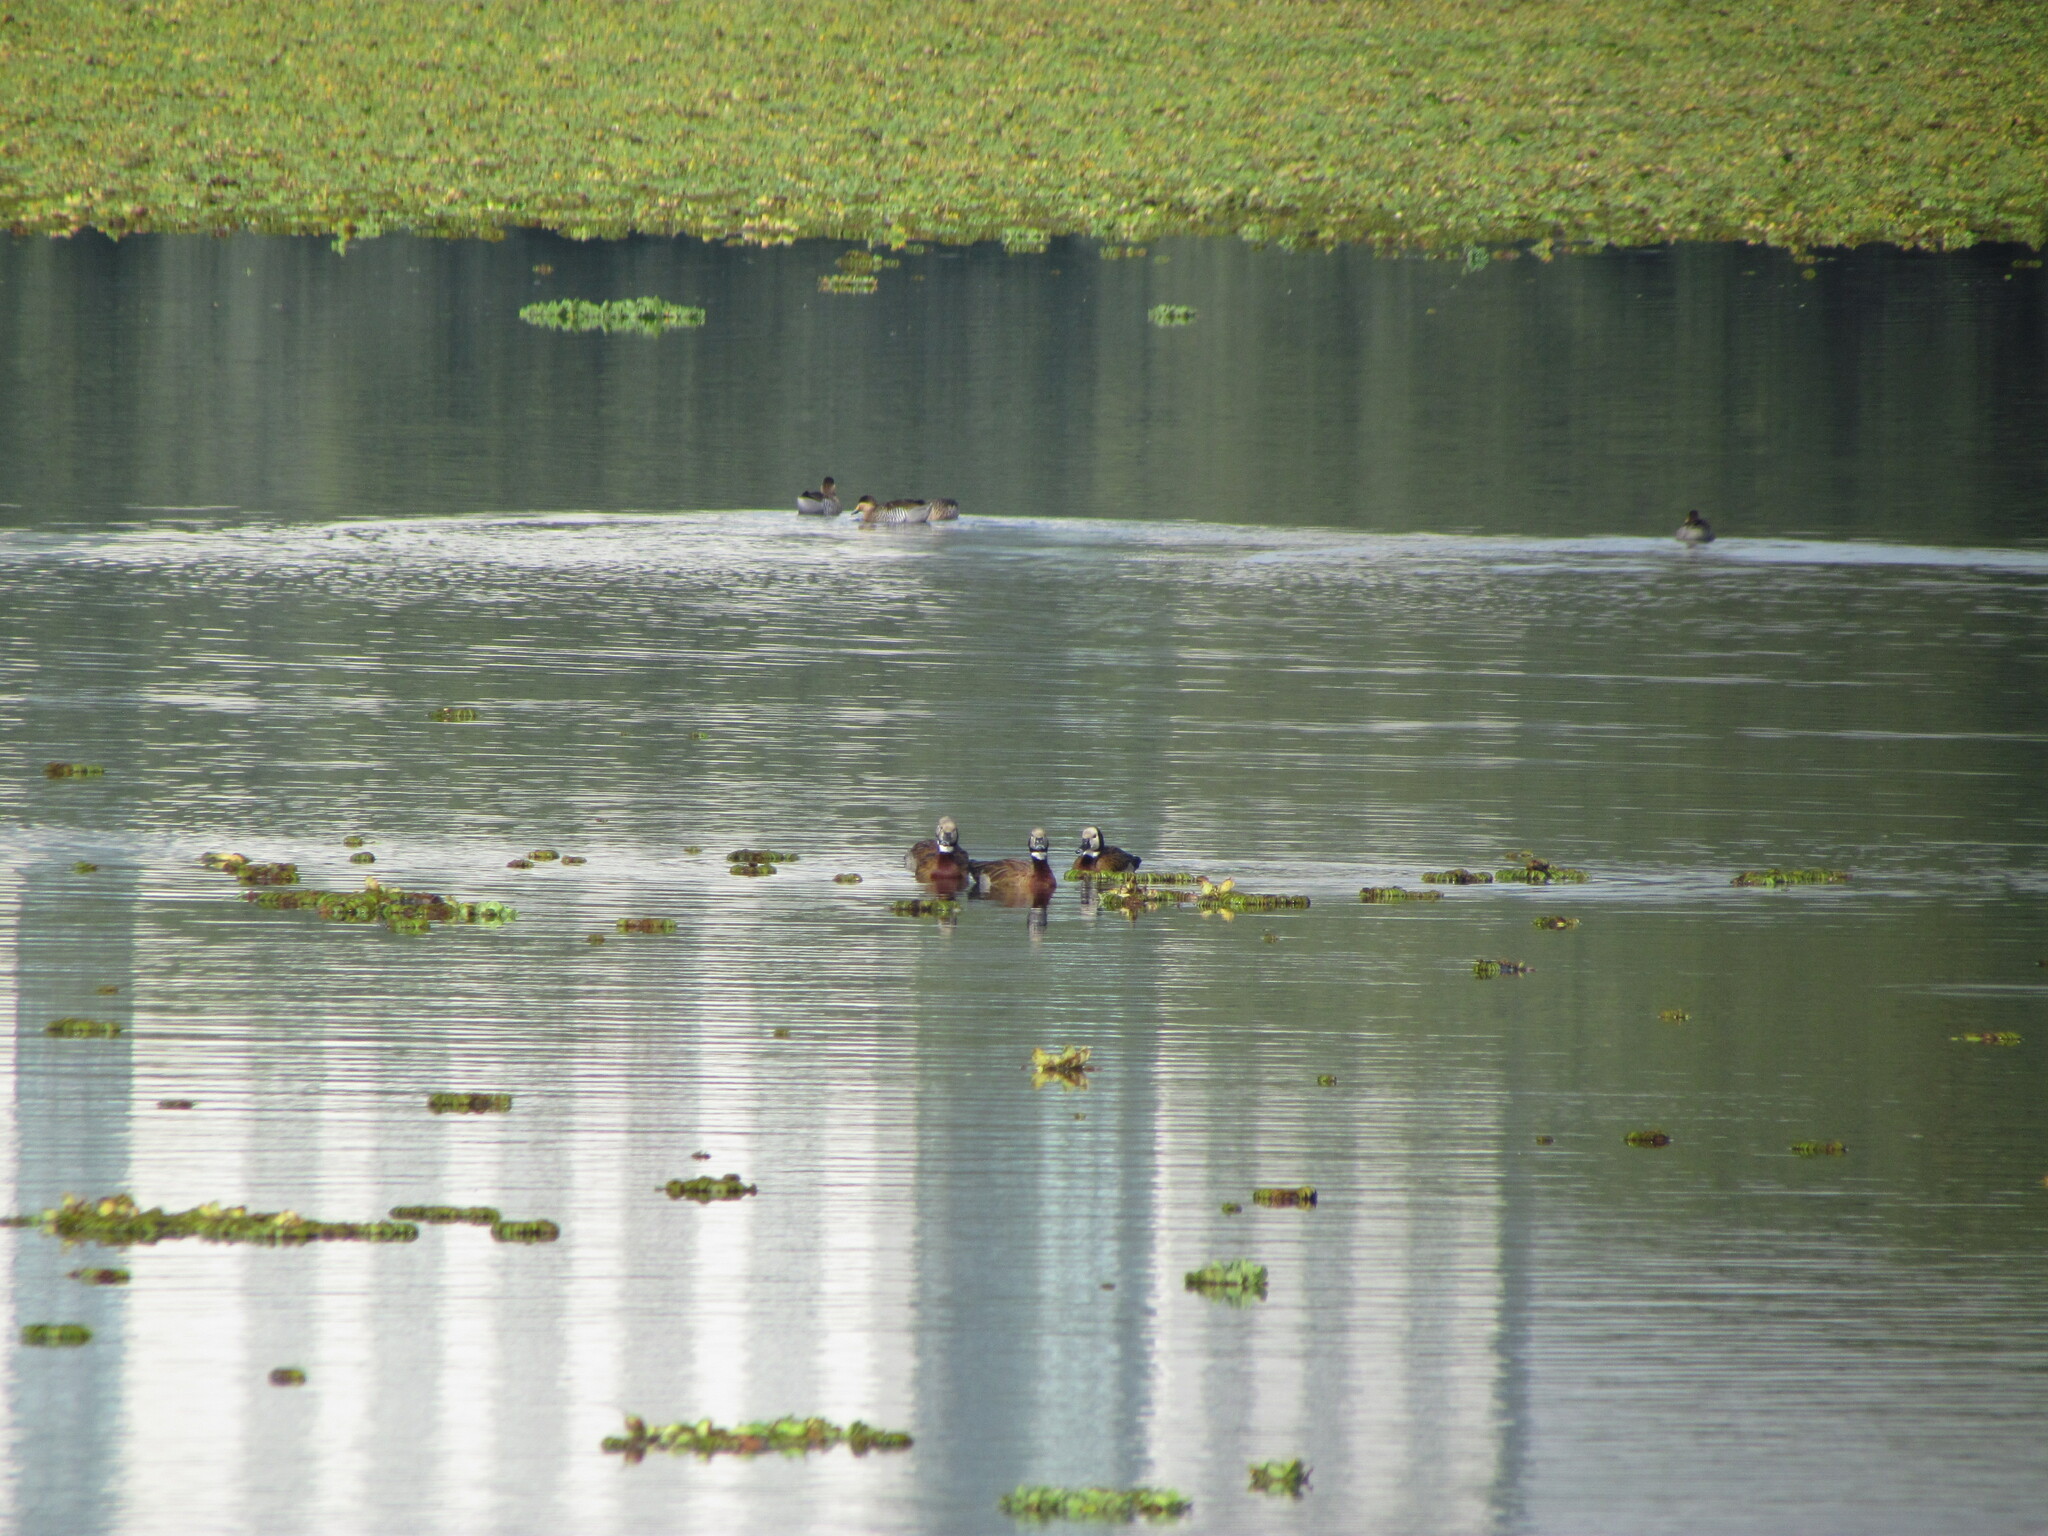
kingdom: Animalia
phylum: Chordata
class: Aves
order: Anseriformes
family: Anatidae
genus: Dendrocygna
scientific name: Dendrocygna viduata
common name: White-faced whistling duck
